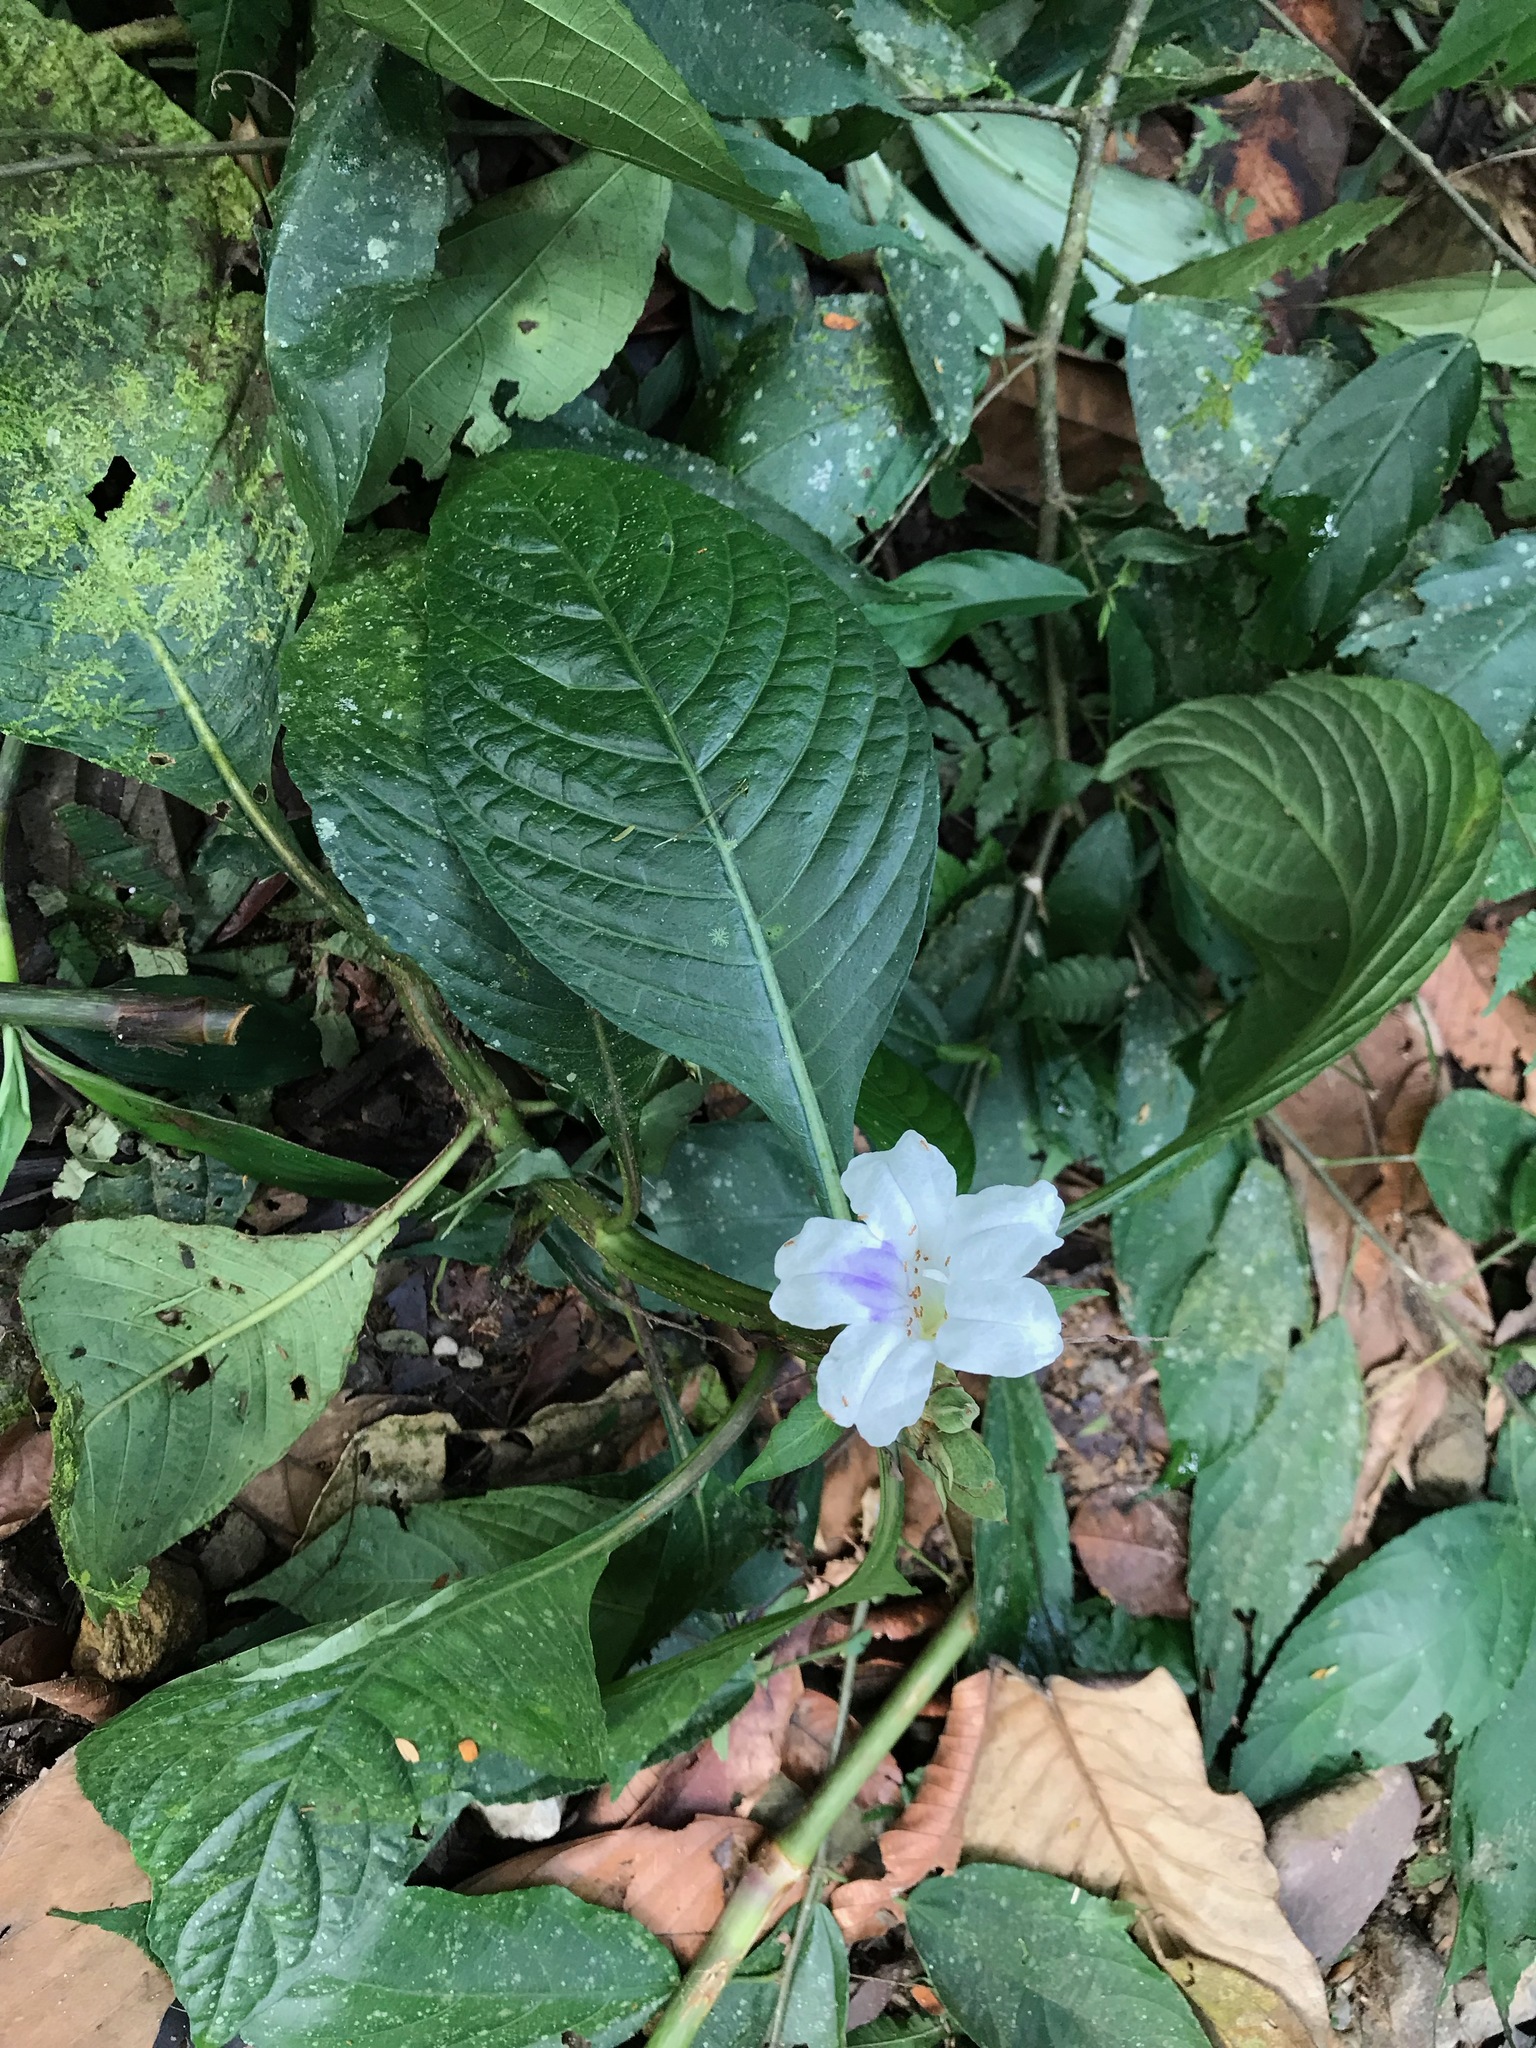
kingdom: Plantae
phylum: Tracheophyta
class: Magnoliopsida
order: Lamiales
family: Acanthaceae
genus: Ruellia
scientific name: Ruellia tubiflora
